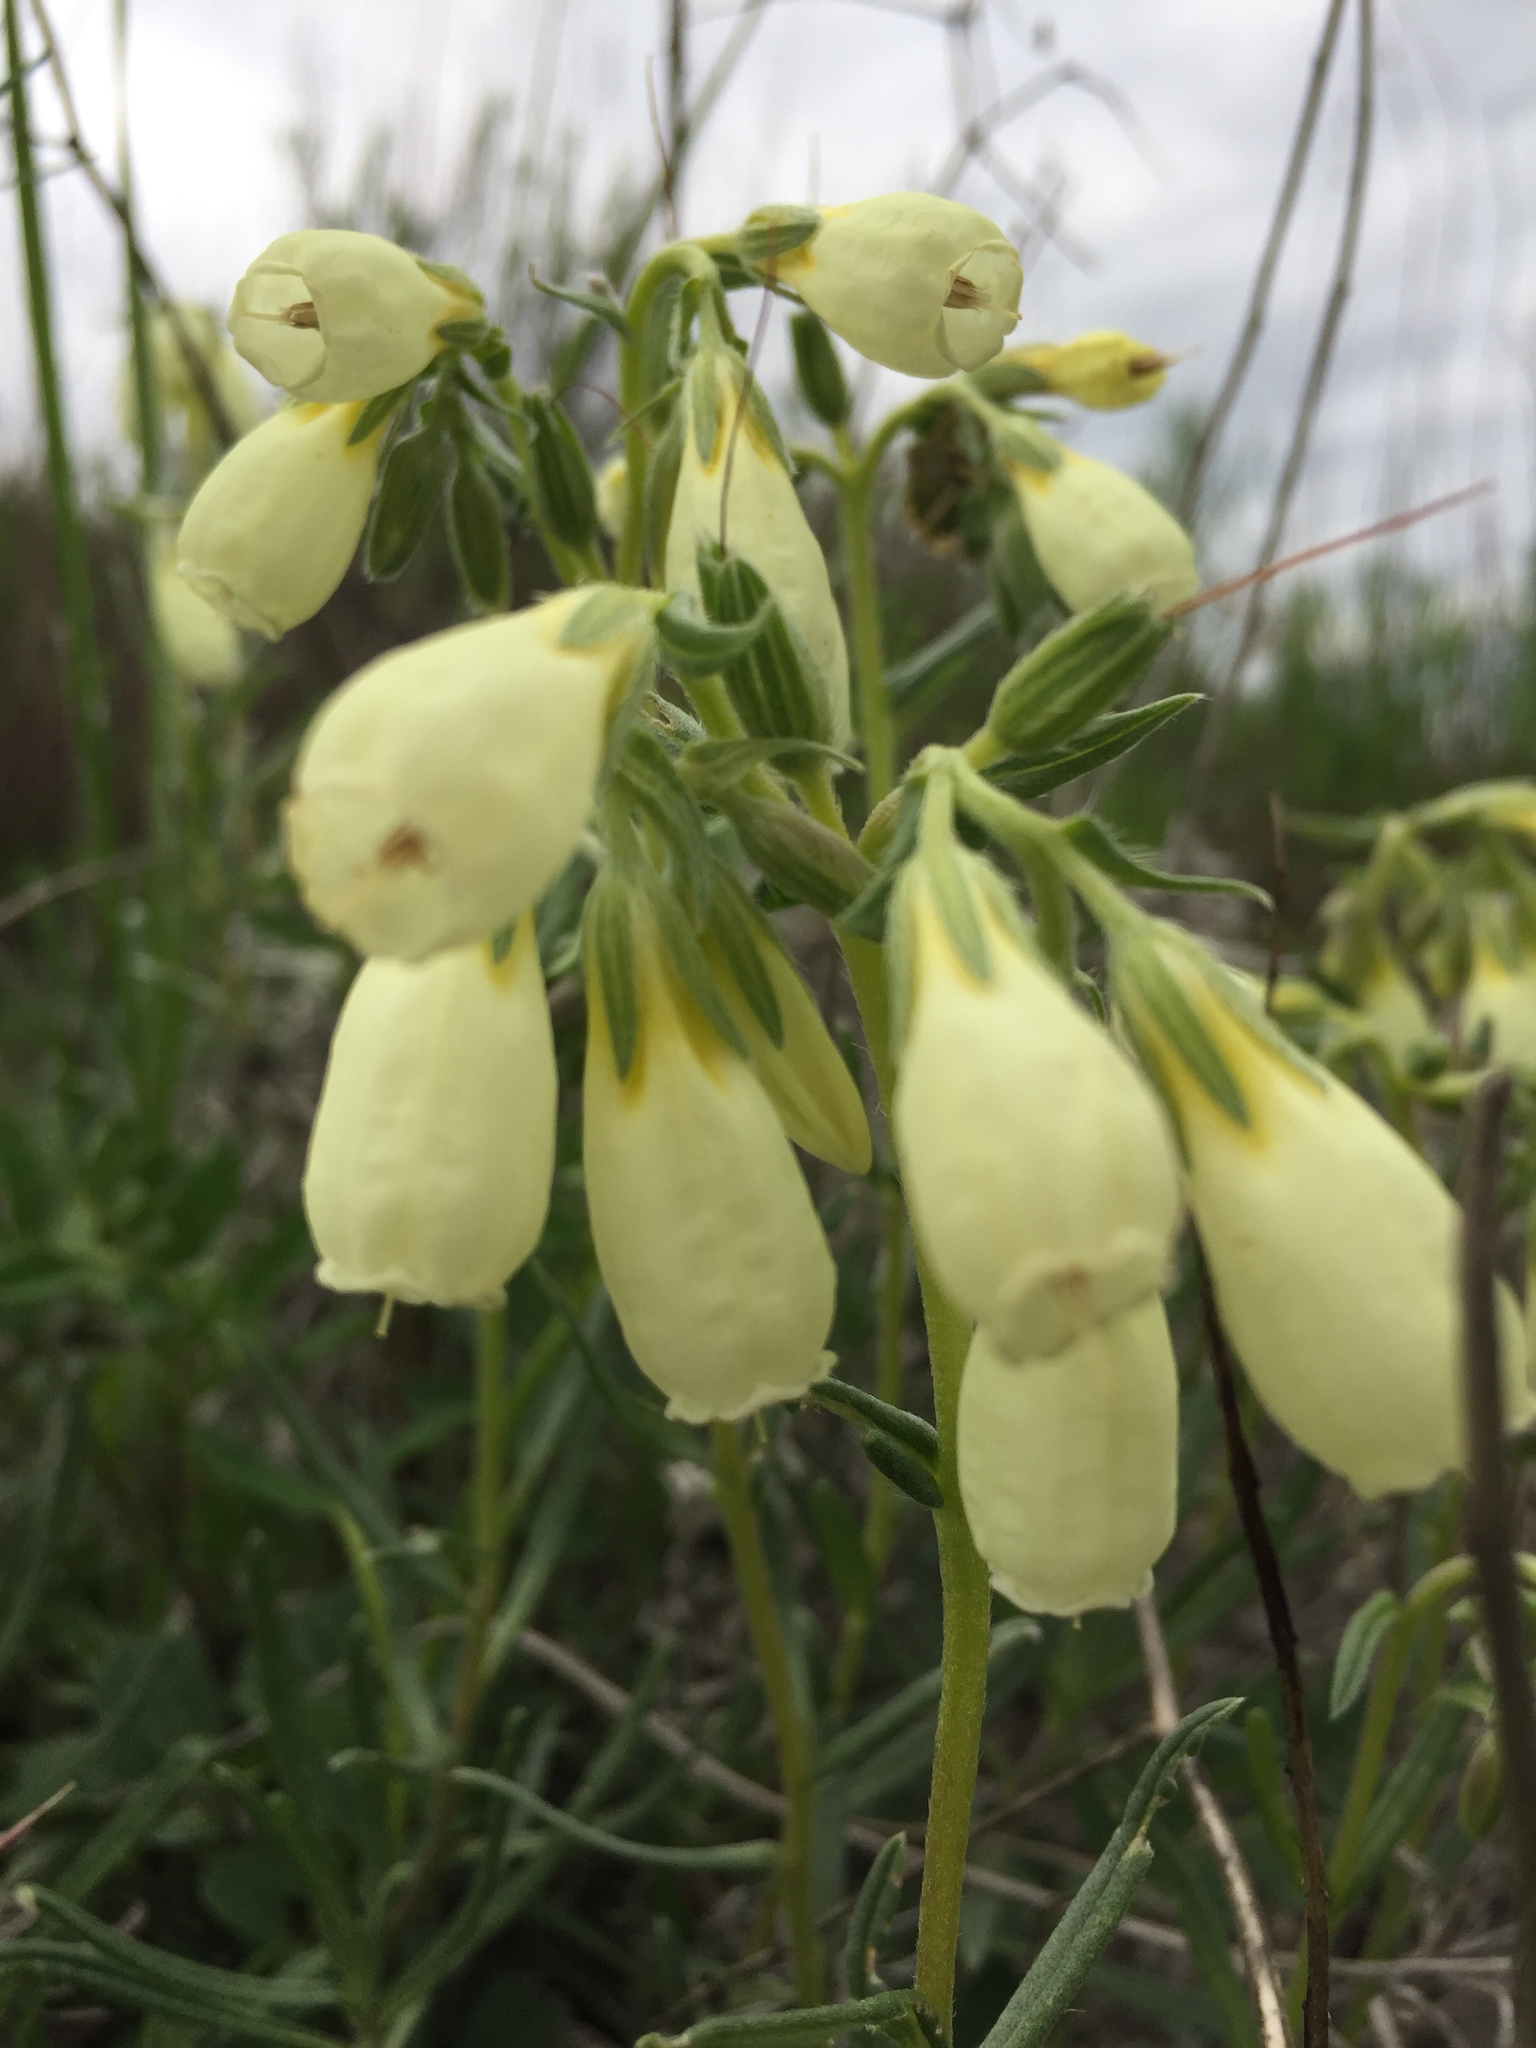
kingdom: Plantae
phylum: Tracheophyta
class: Magnoliopsida
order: Boraginales
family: Boraginaceae
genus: Onosma
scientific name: Onosma simplicissima
